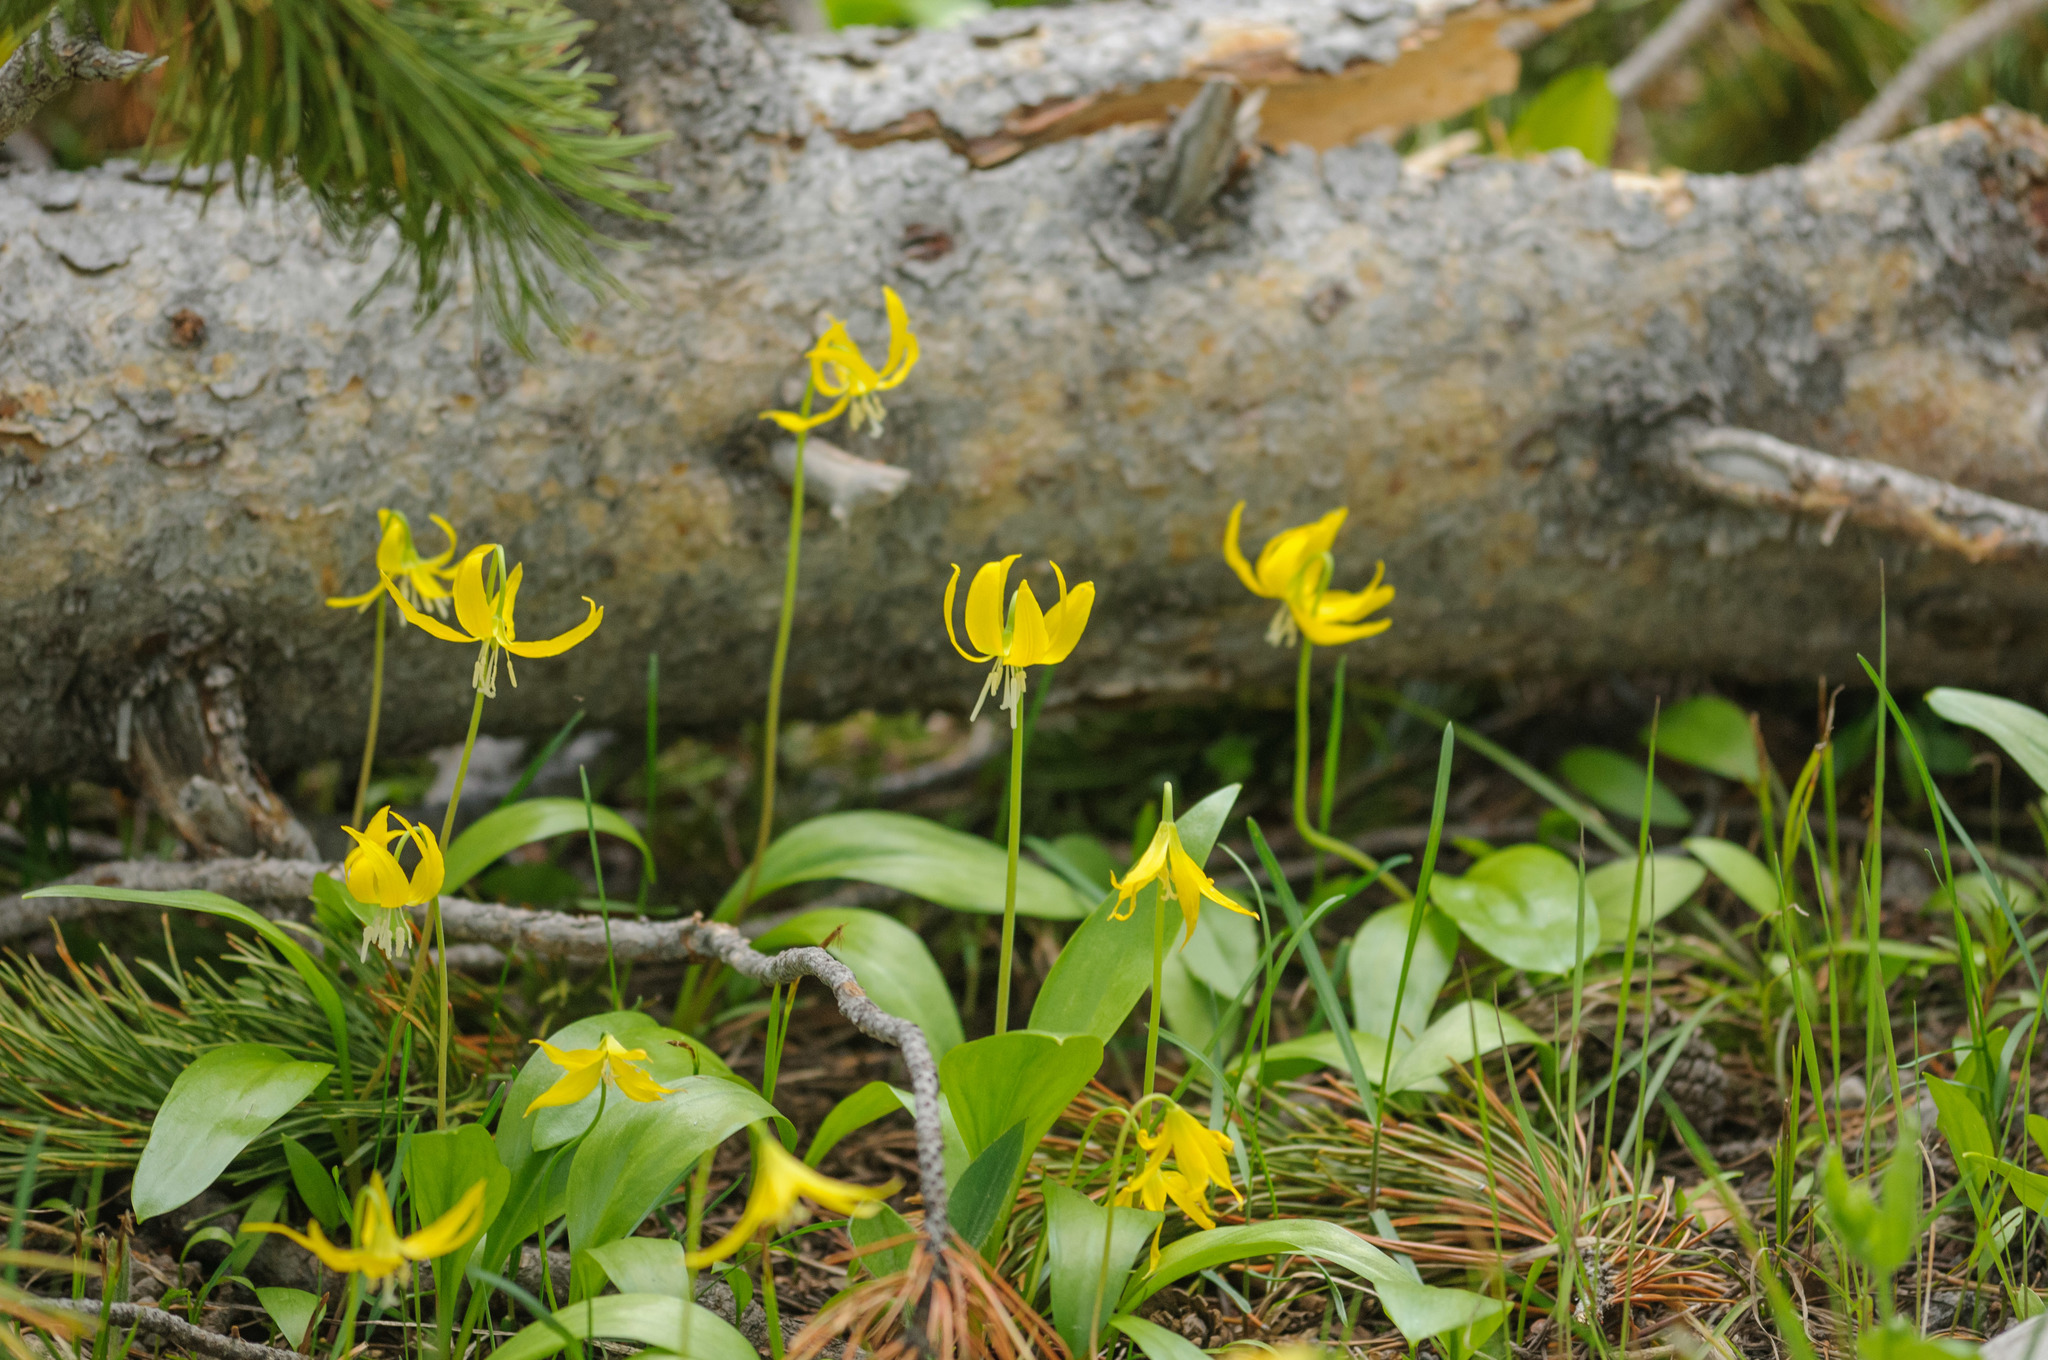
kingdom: Plantae
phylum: Tracheophyta
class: Liliopsida
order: Liliales
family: Liliaceae
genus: Erythronium
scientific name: Erythronium grandiflorum
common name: Avalanche-lily
